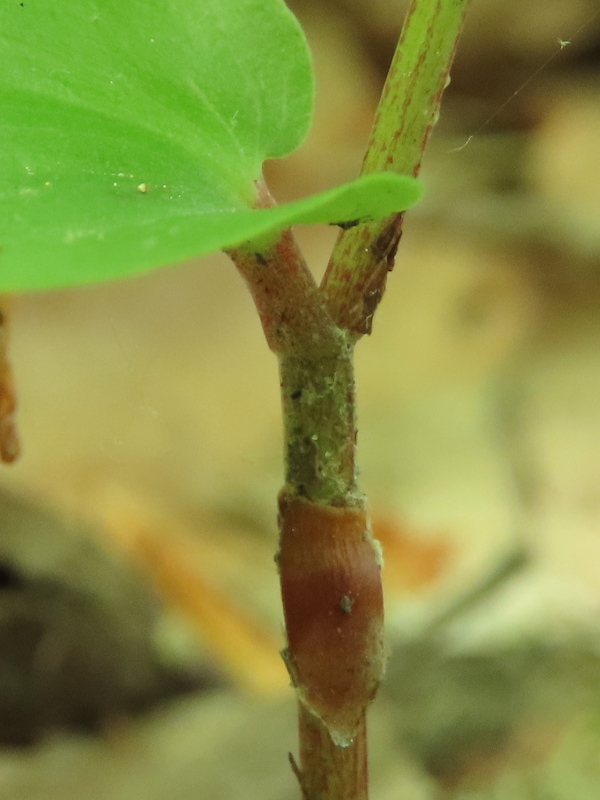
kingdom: Plantae
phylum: Tracheophyta
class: Liliopsida
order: Asparagales
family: Asparagaceae
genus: Maianthemum
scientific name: Maianthemum canadense
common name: False lily-of-the-valley
